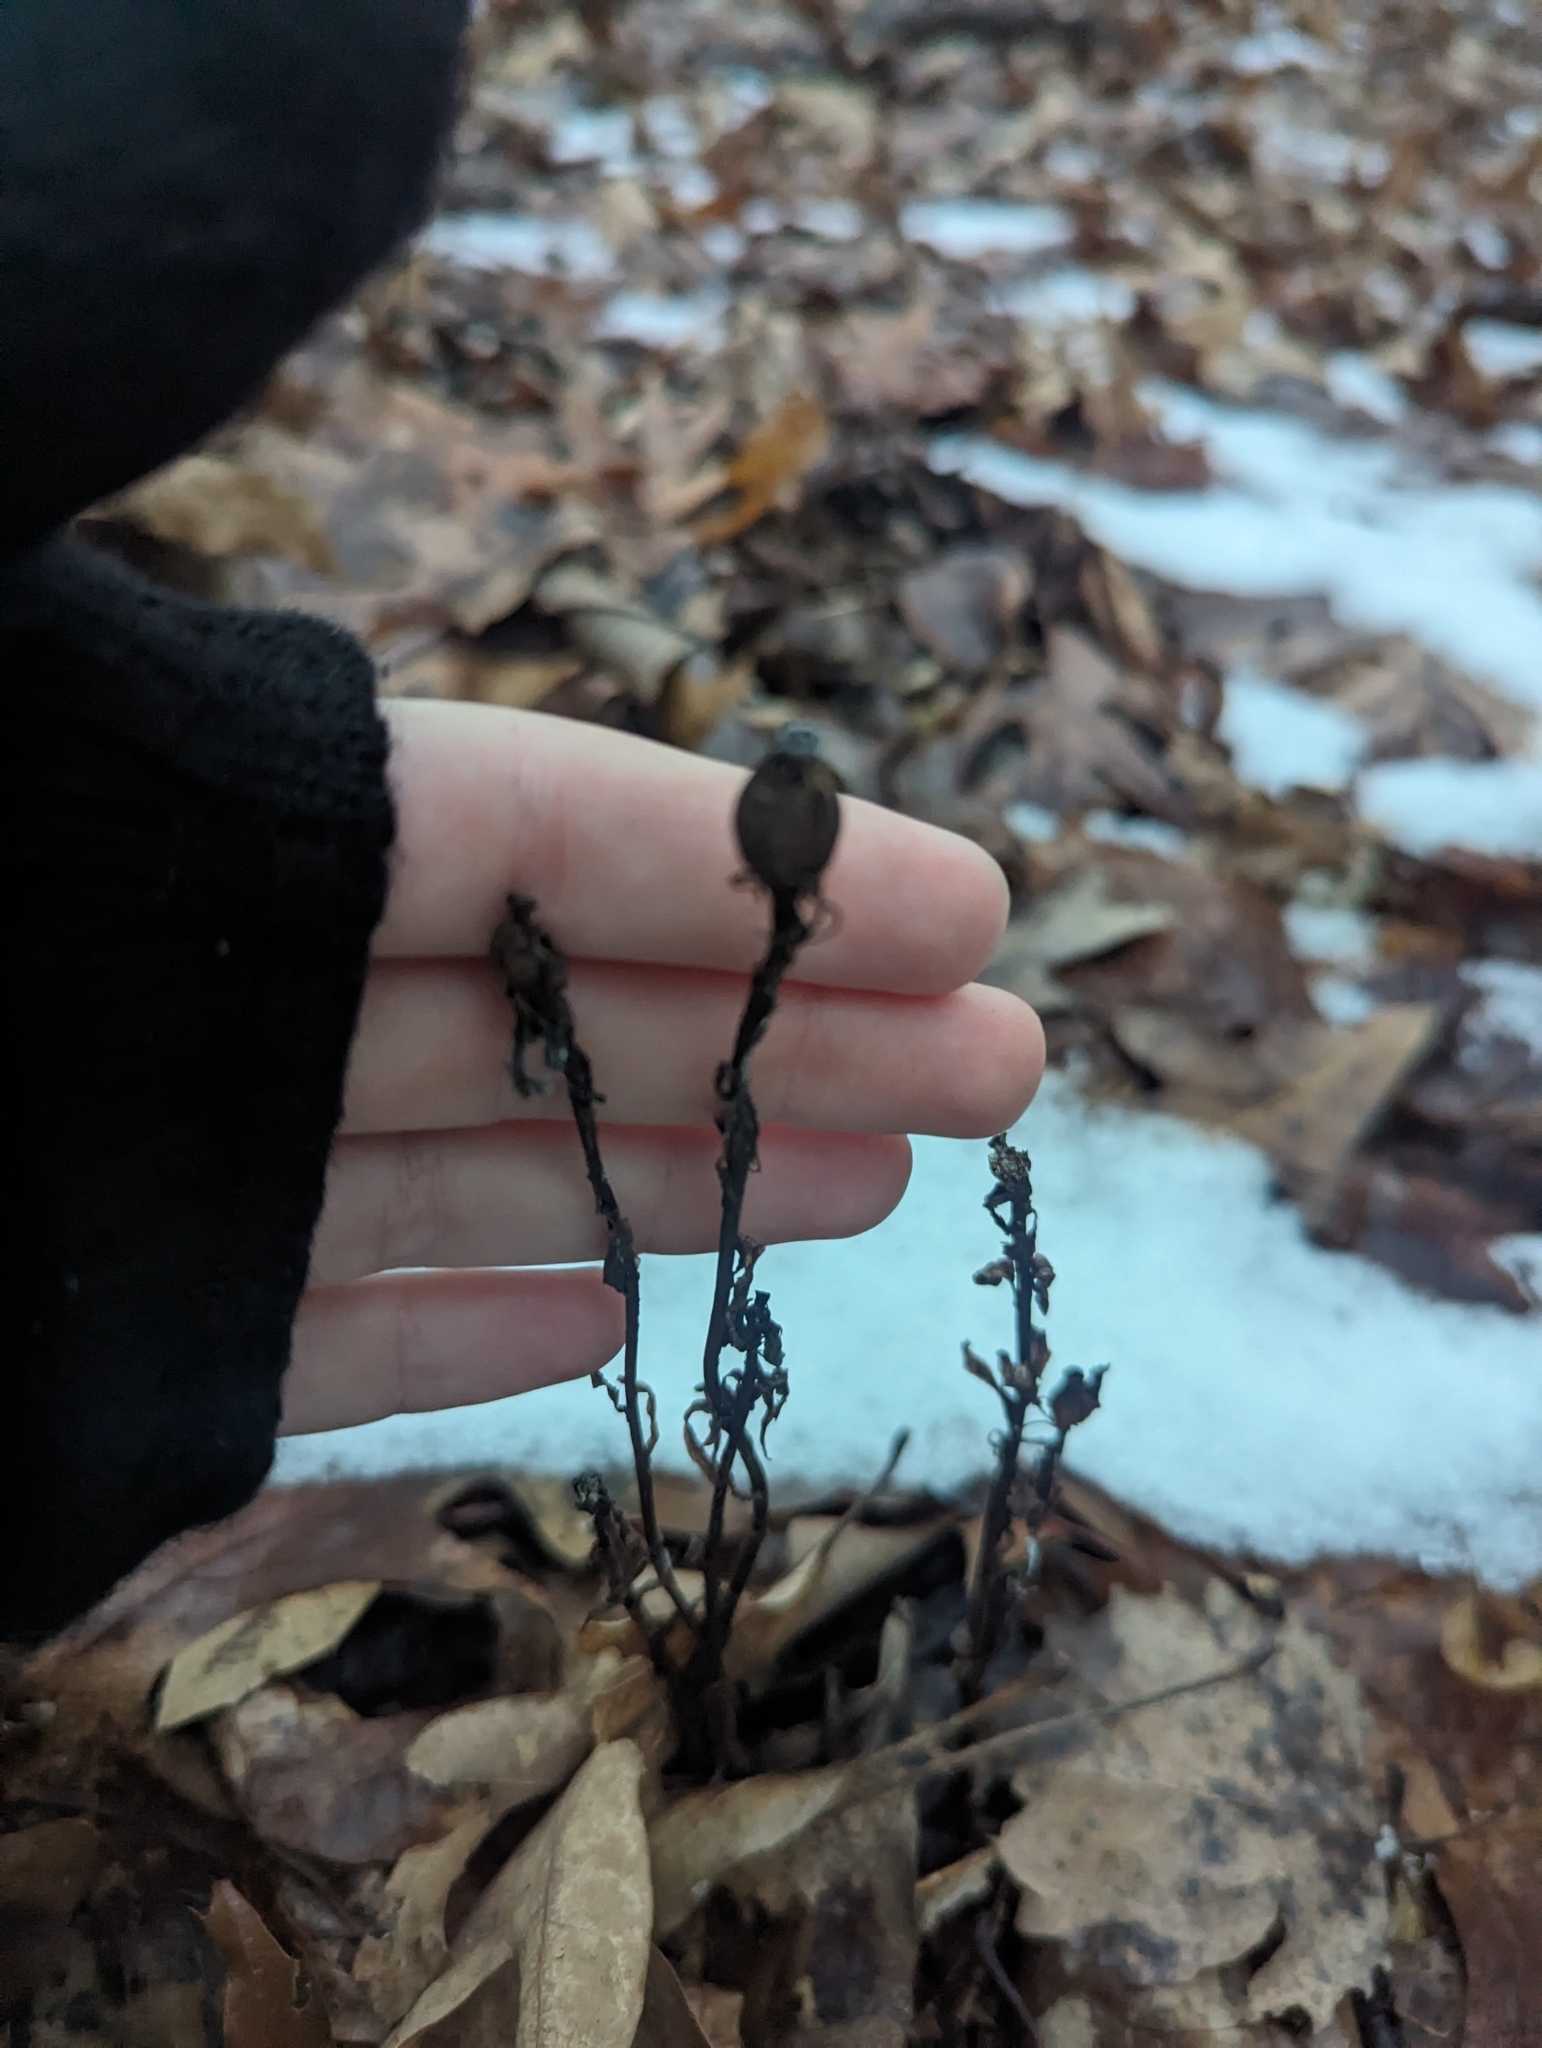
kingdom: Plantae
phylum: Tracheophyta
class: Magnoliopsida
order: Ericales
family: Ericaceae
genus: Monotropa
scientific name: Monotropa uniflora
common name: Convulsion root
